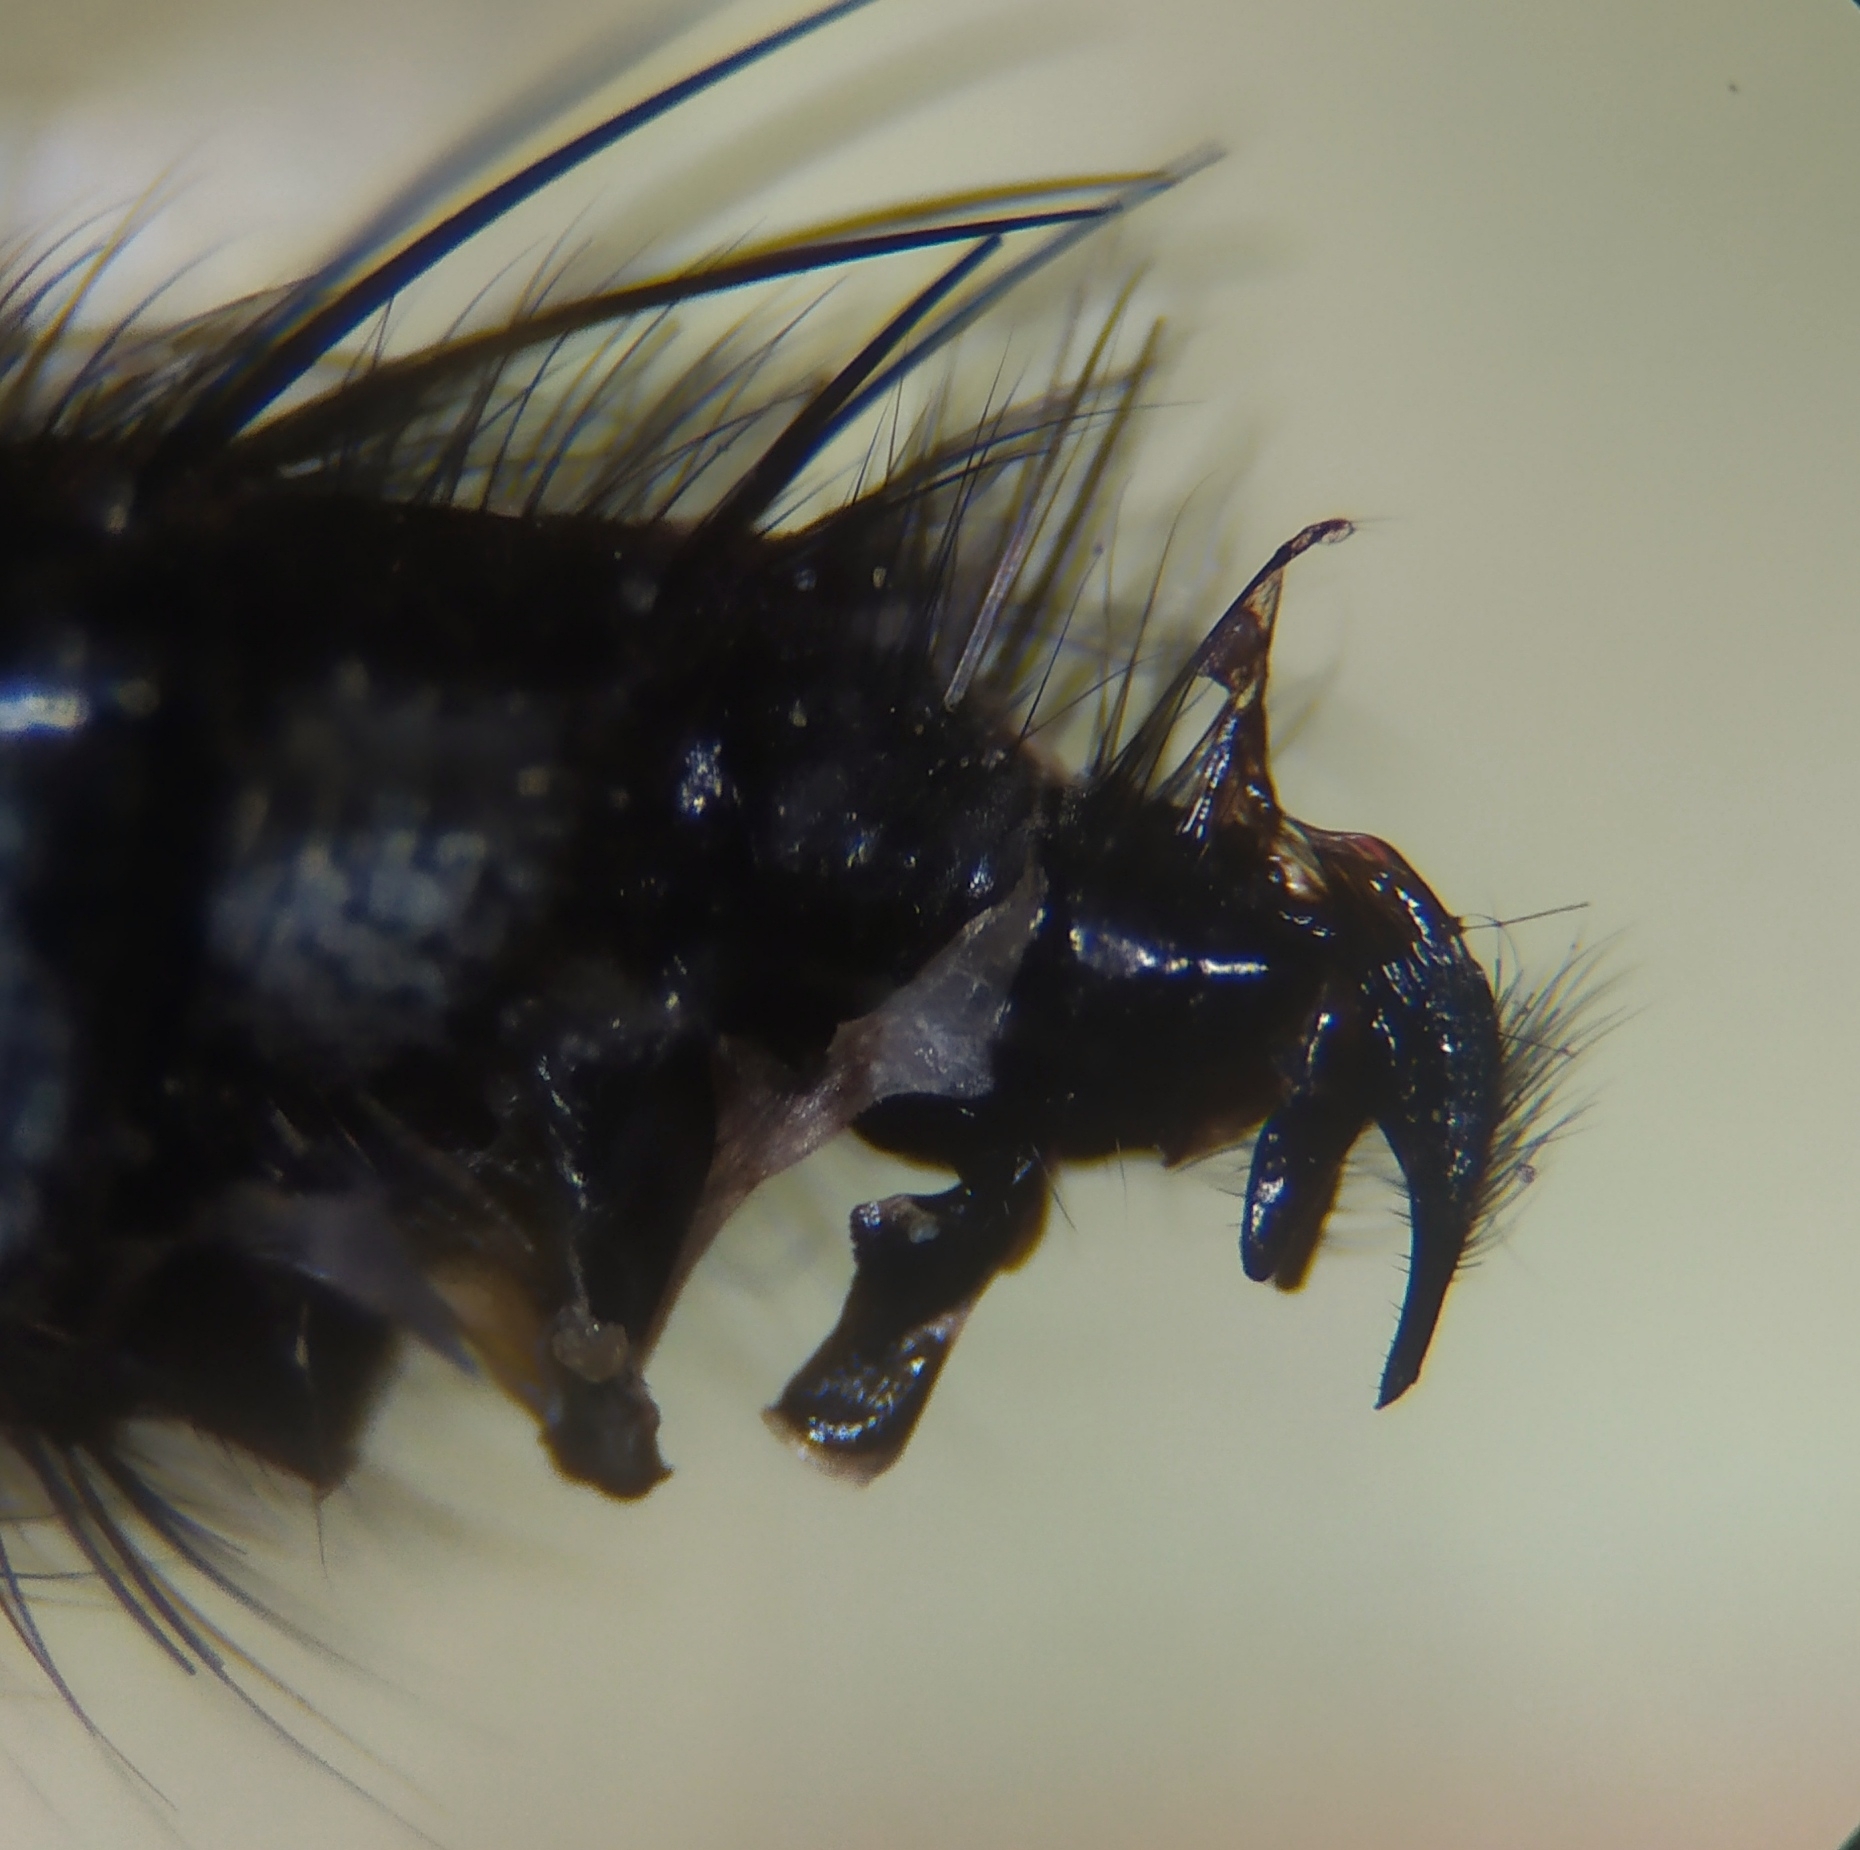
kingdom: Animalia
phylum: Arthropoda
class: Insecta
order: Diptera
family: Calliphoridae
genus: Eurychaeta
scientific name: Eurychaeta palpalis
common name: False fleshfly
